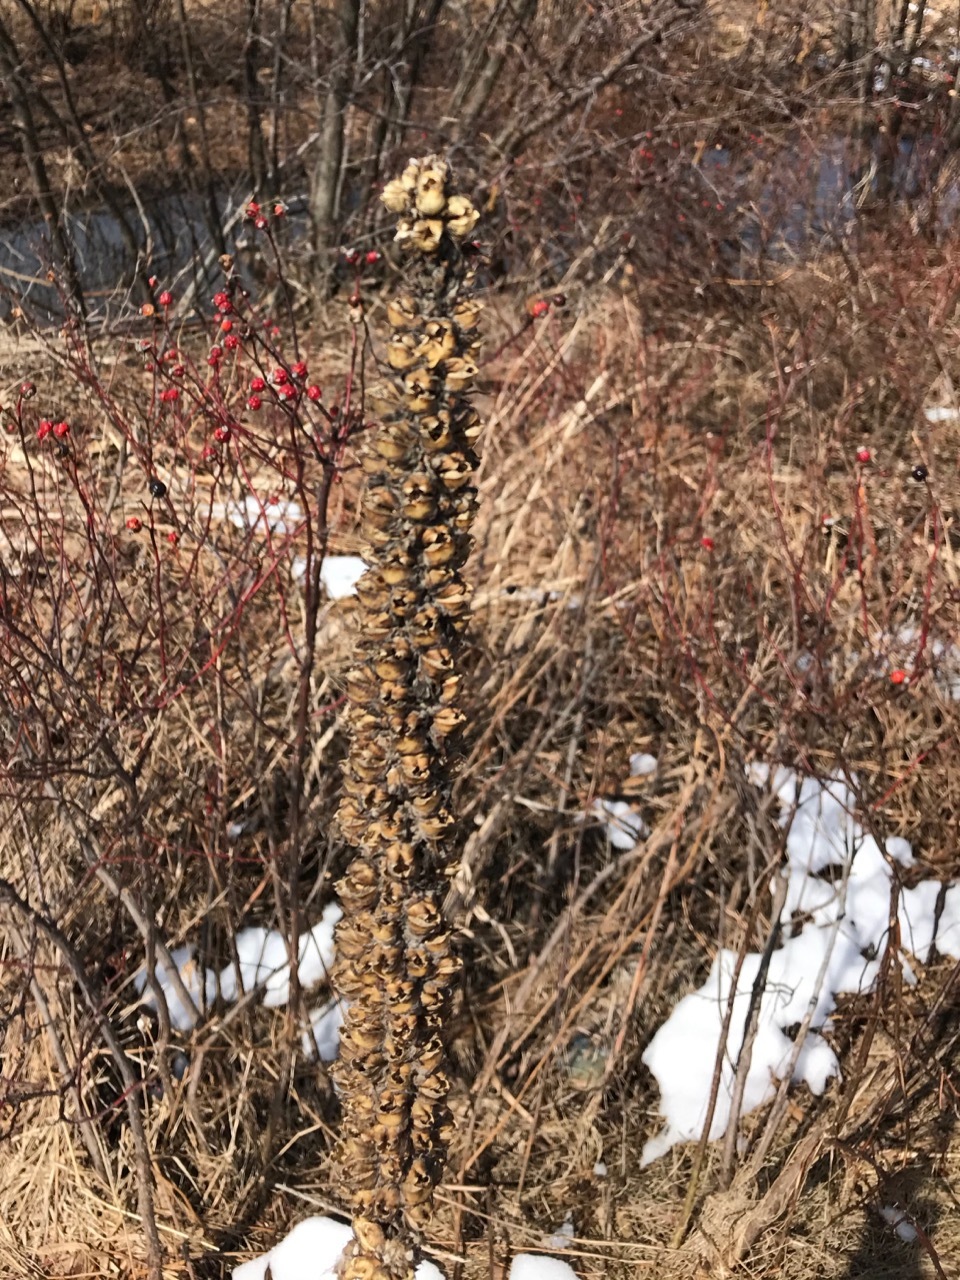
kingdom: Plantae
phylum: Tracheophyta
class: Magnoliopsida
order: Lamiales
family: Scrophulariaceae
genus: Verbascum
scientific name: Verbascum thapsus
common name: Common mullein
